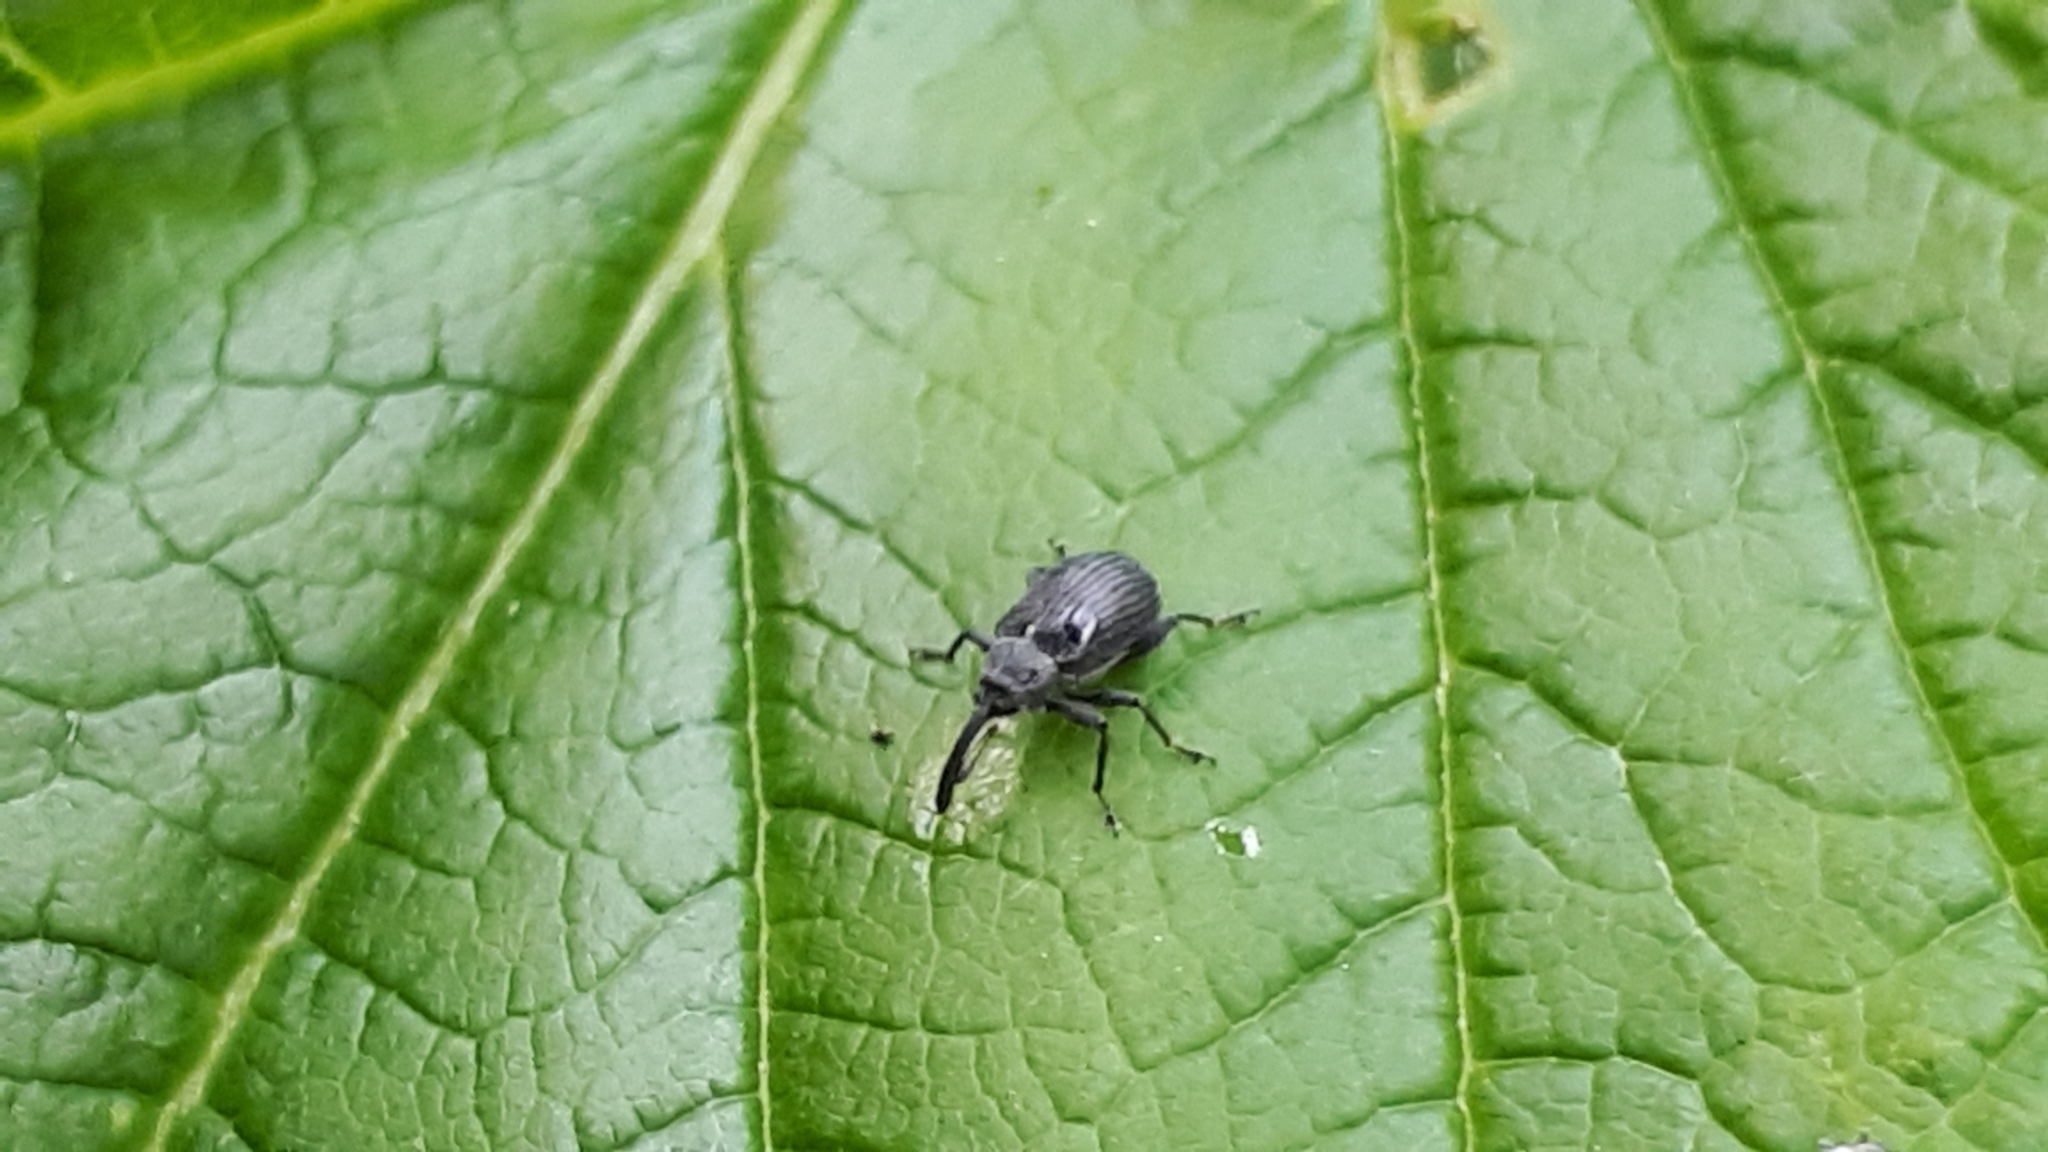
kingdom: Animalia
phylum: Arthropoda
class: Insecta
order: Coleoptera
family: Curculionidae
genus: Anthonomus
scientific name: Anthonomus rubi
